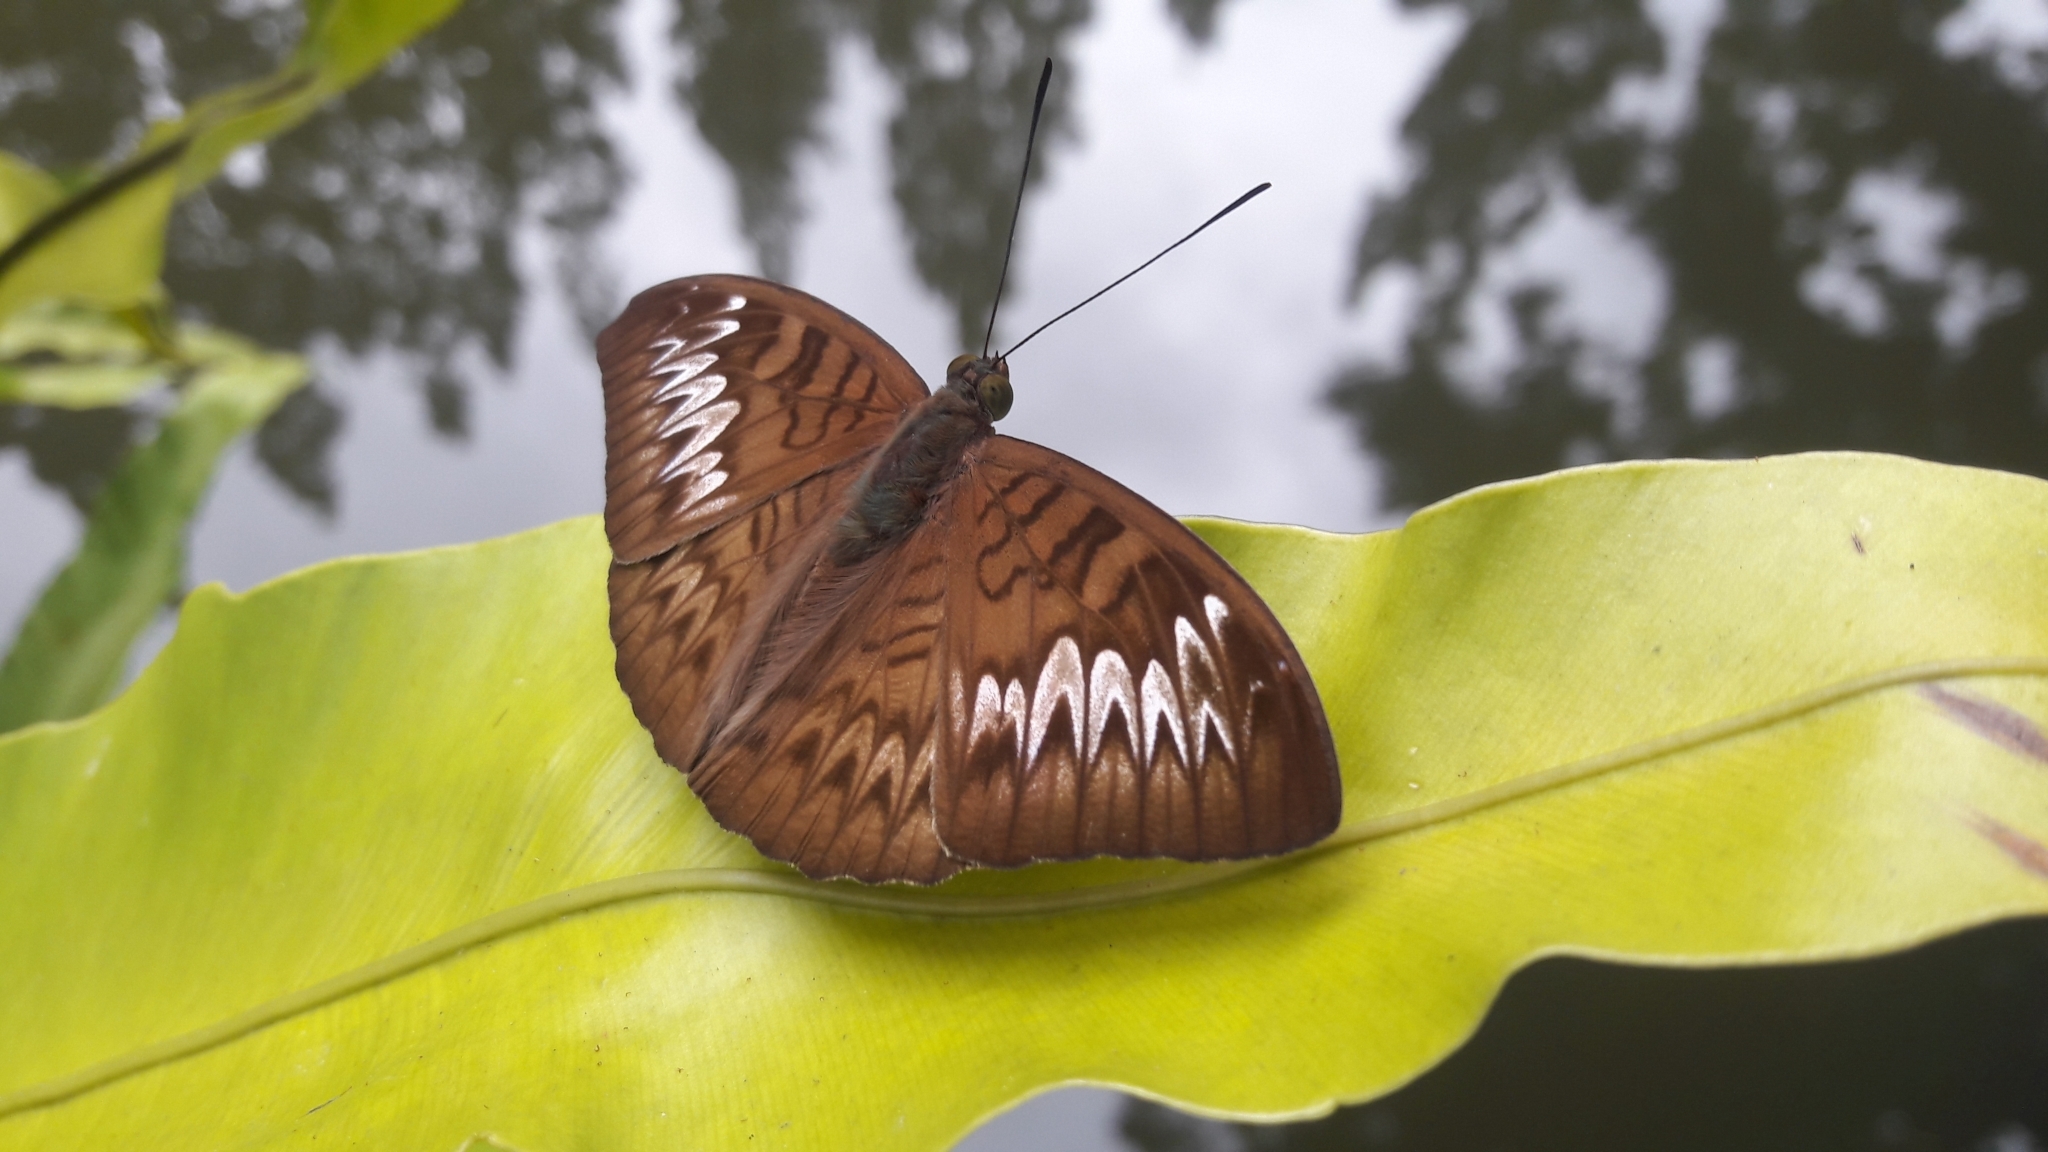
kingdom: Animalia
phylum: Arthropoda
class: Insecta
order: Lepidoptera
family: Nymphalidae
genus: Tanaecia
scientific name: Tanaecia pelea
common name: Malay viscount
